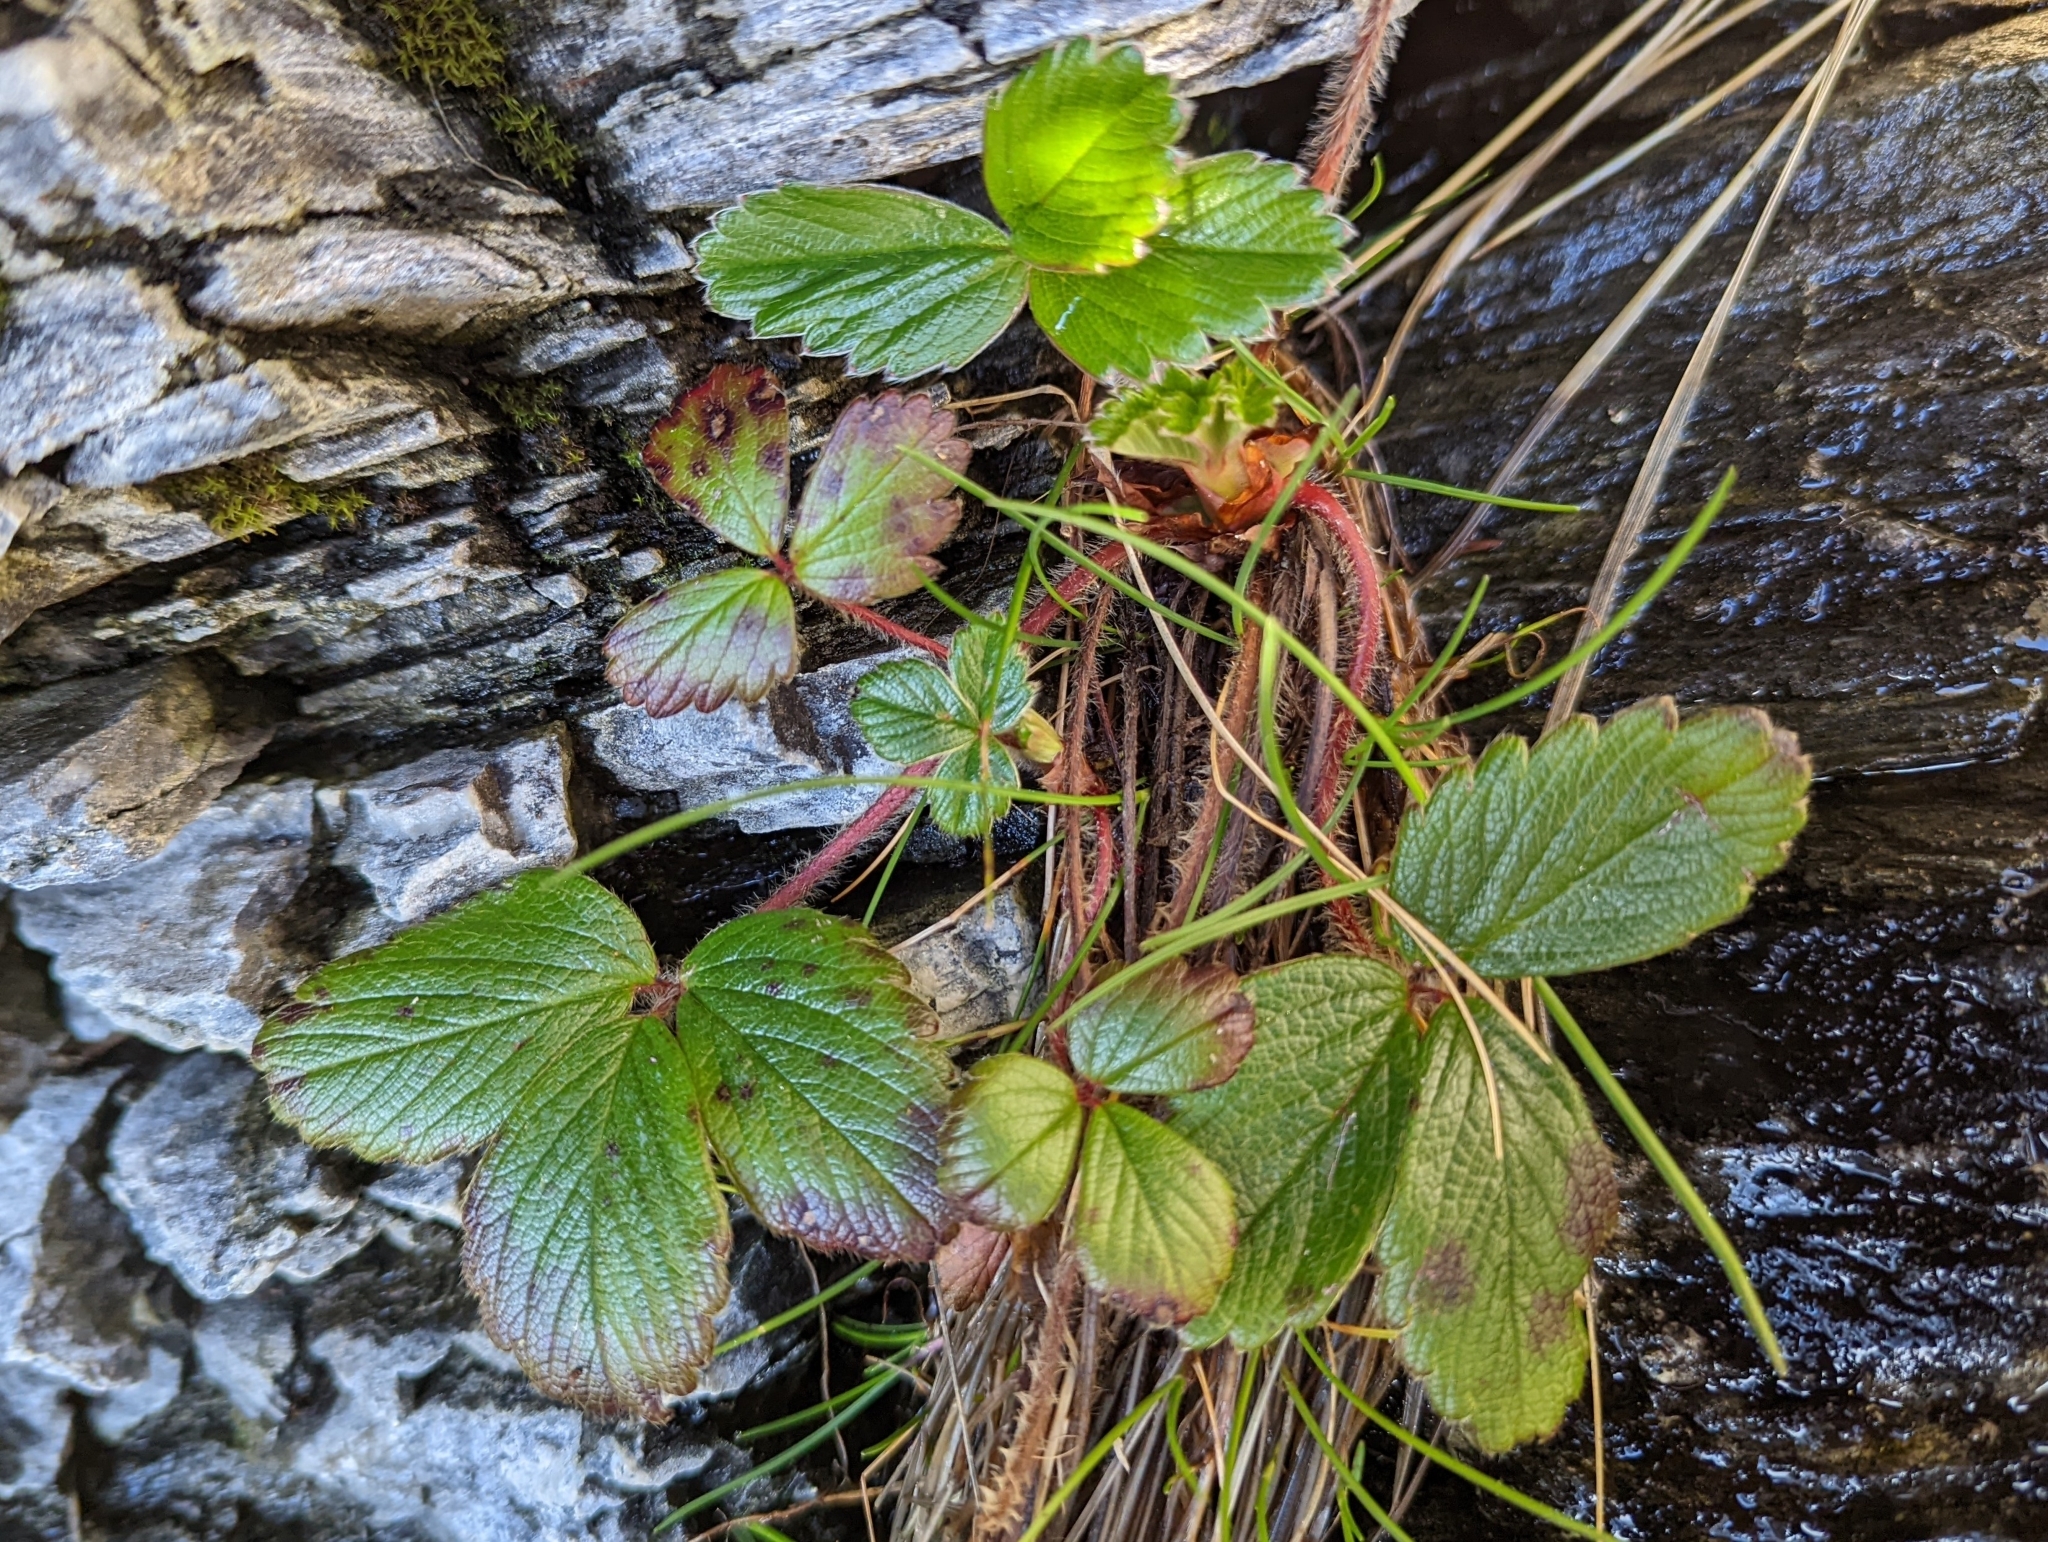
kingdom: Plantae
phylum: Tracheophyta
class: Magnoliopsida
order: Rosales
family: Rosaceae
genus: Fragaria
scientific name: Fragaria chiloensis
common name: Beach strawberry
